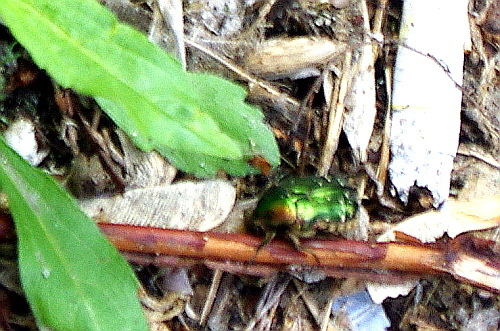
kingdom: Animalia
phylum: Arthropoda
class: Insecta
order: Coleoptera
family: Scarabaeidae
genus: Cetonia
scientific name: Cetonia aurata
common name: Rose chafer
